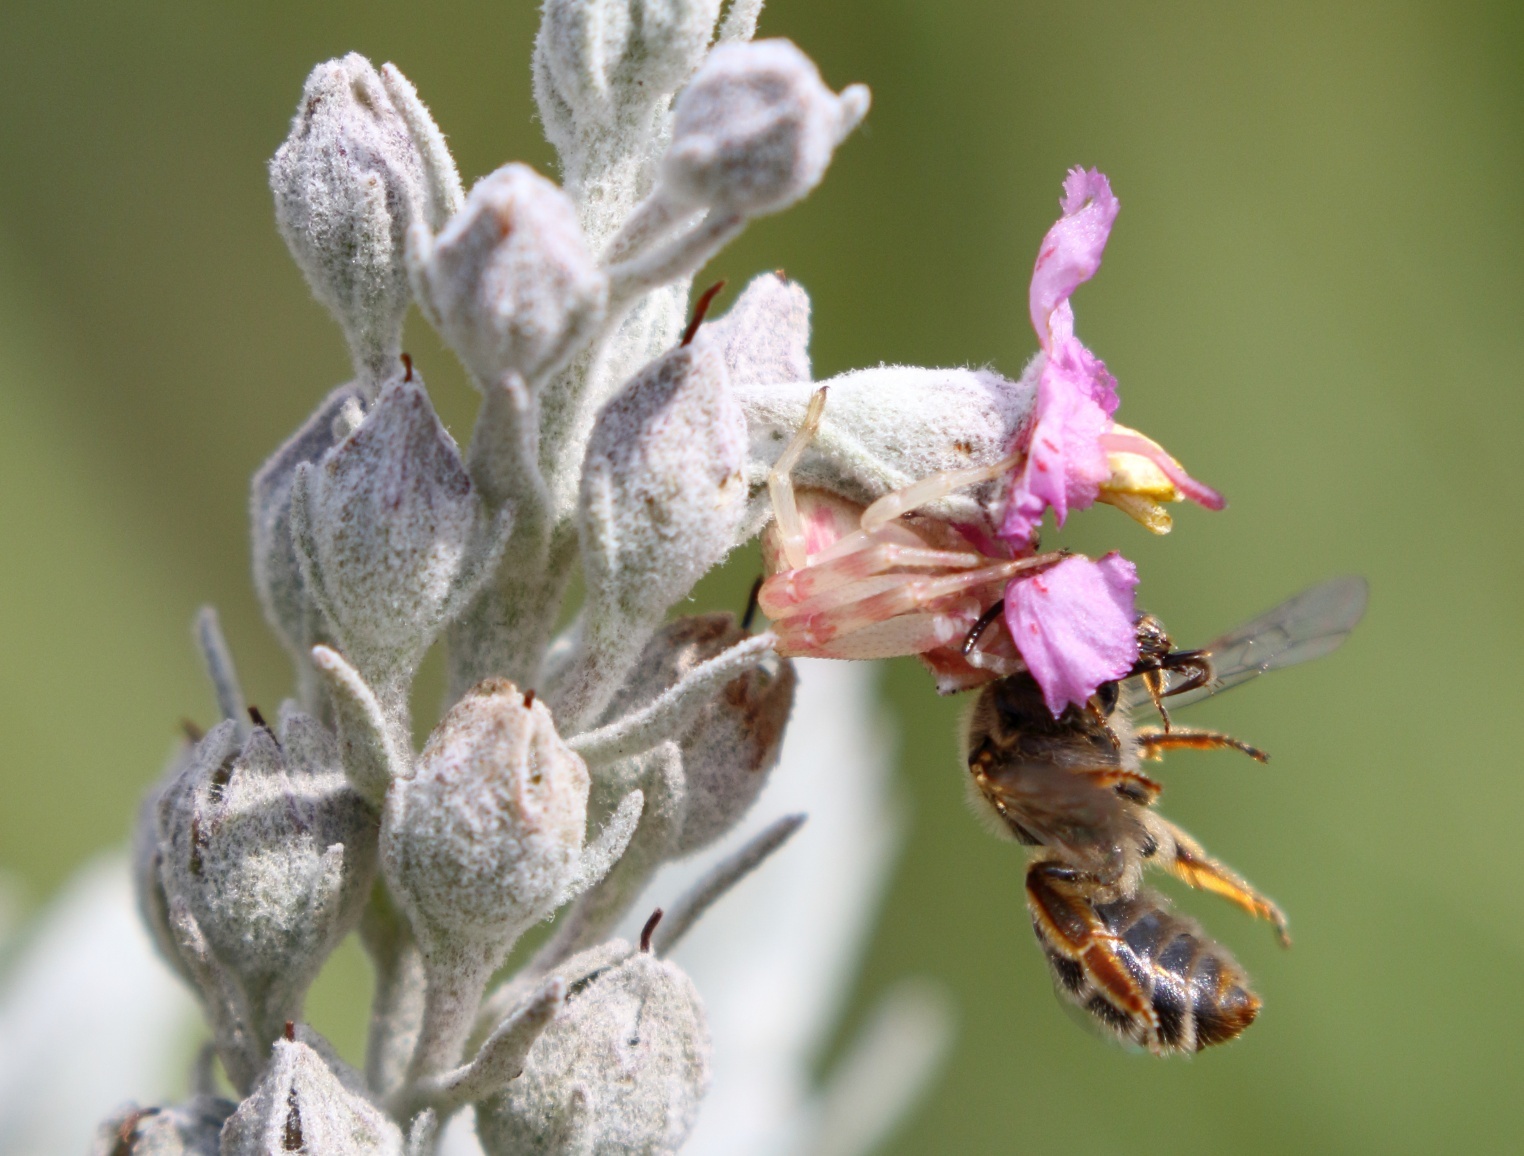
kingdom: Plantae
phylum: Tracheophyta
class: Magnoliopsida
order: Lamiales
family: Orobanchaceae
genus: Sopubia
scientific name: Sopubia cana
